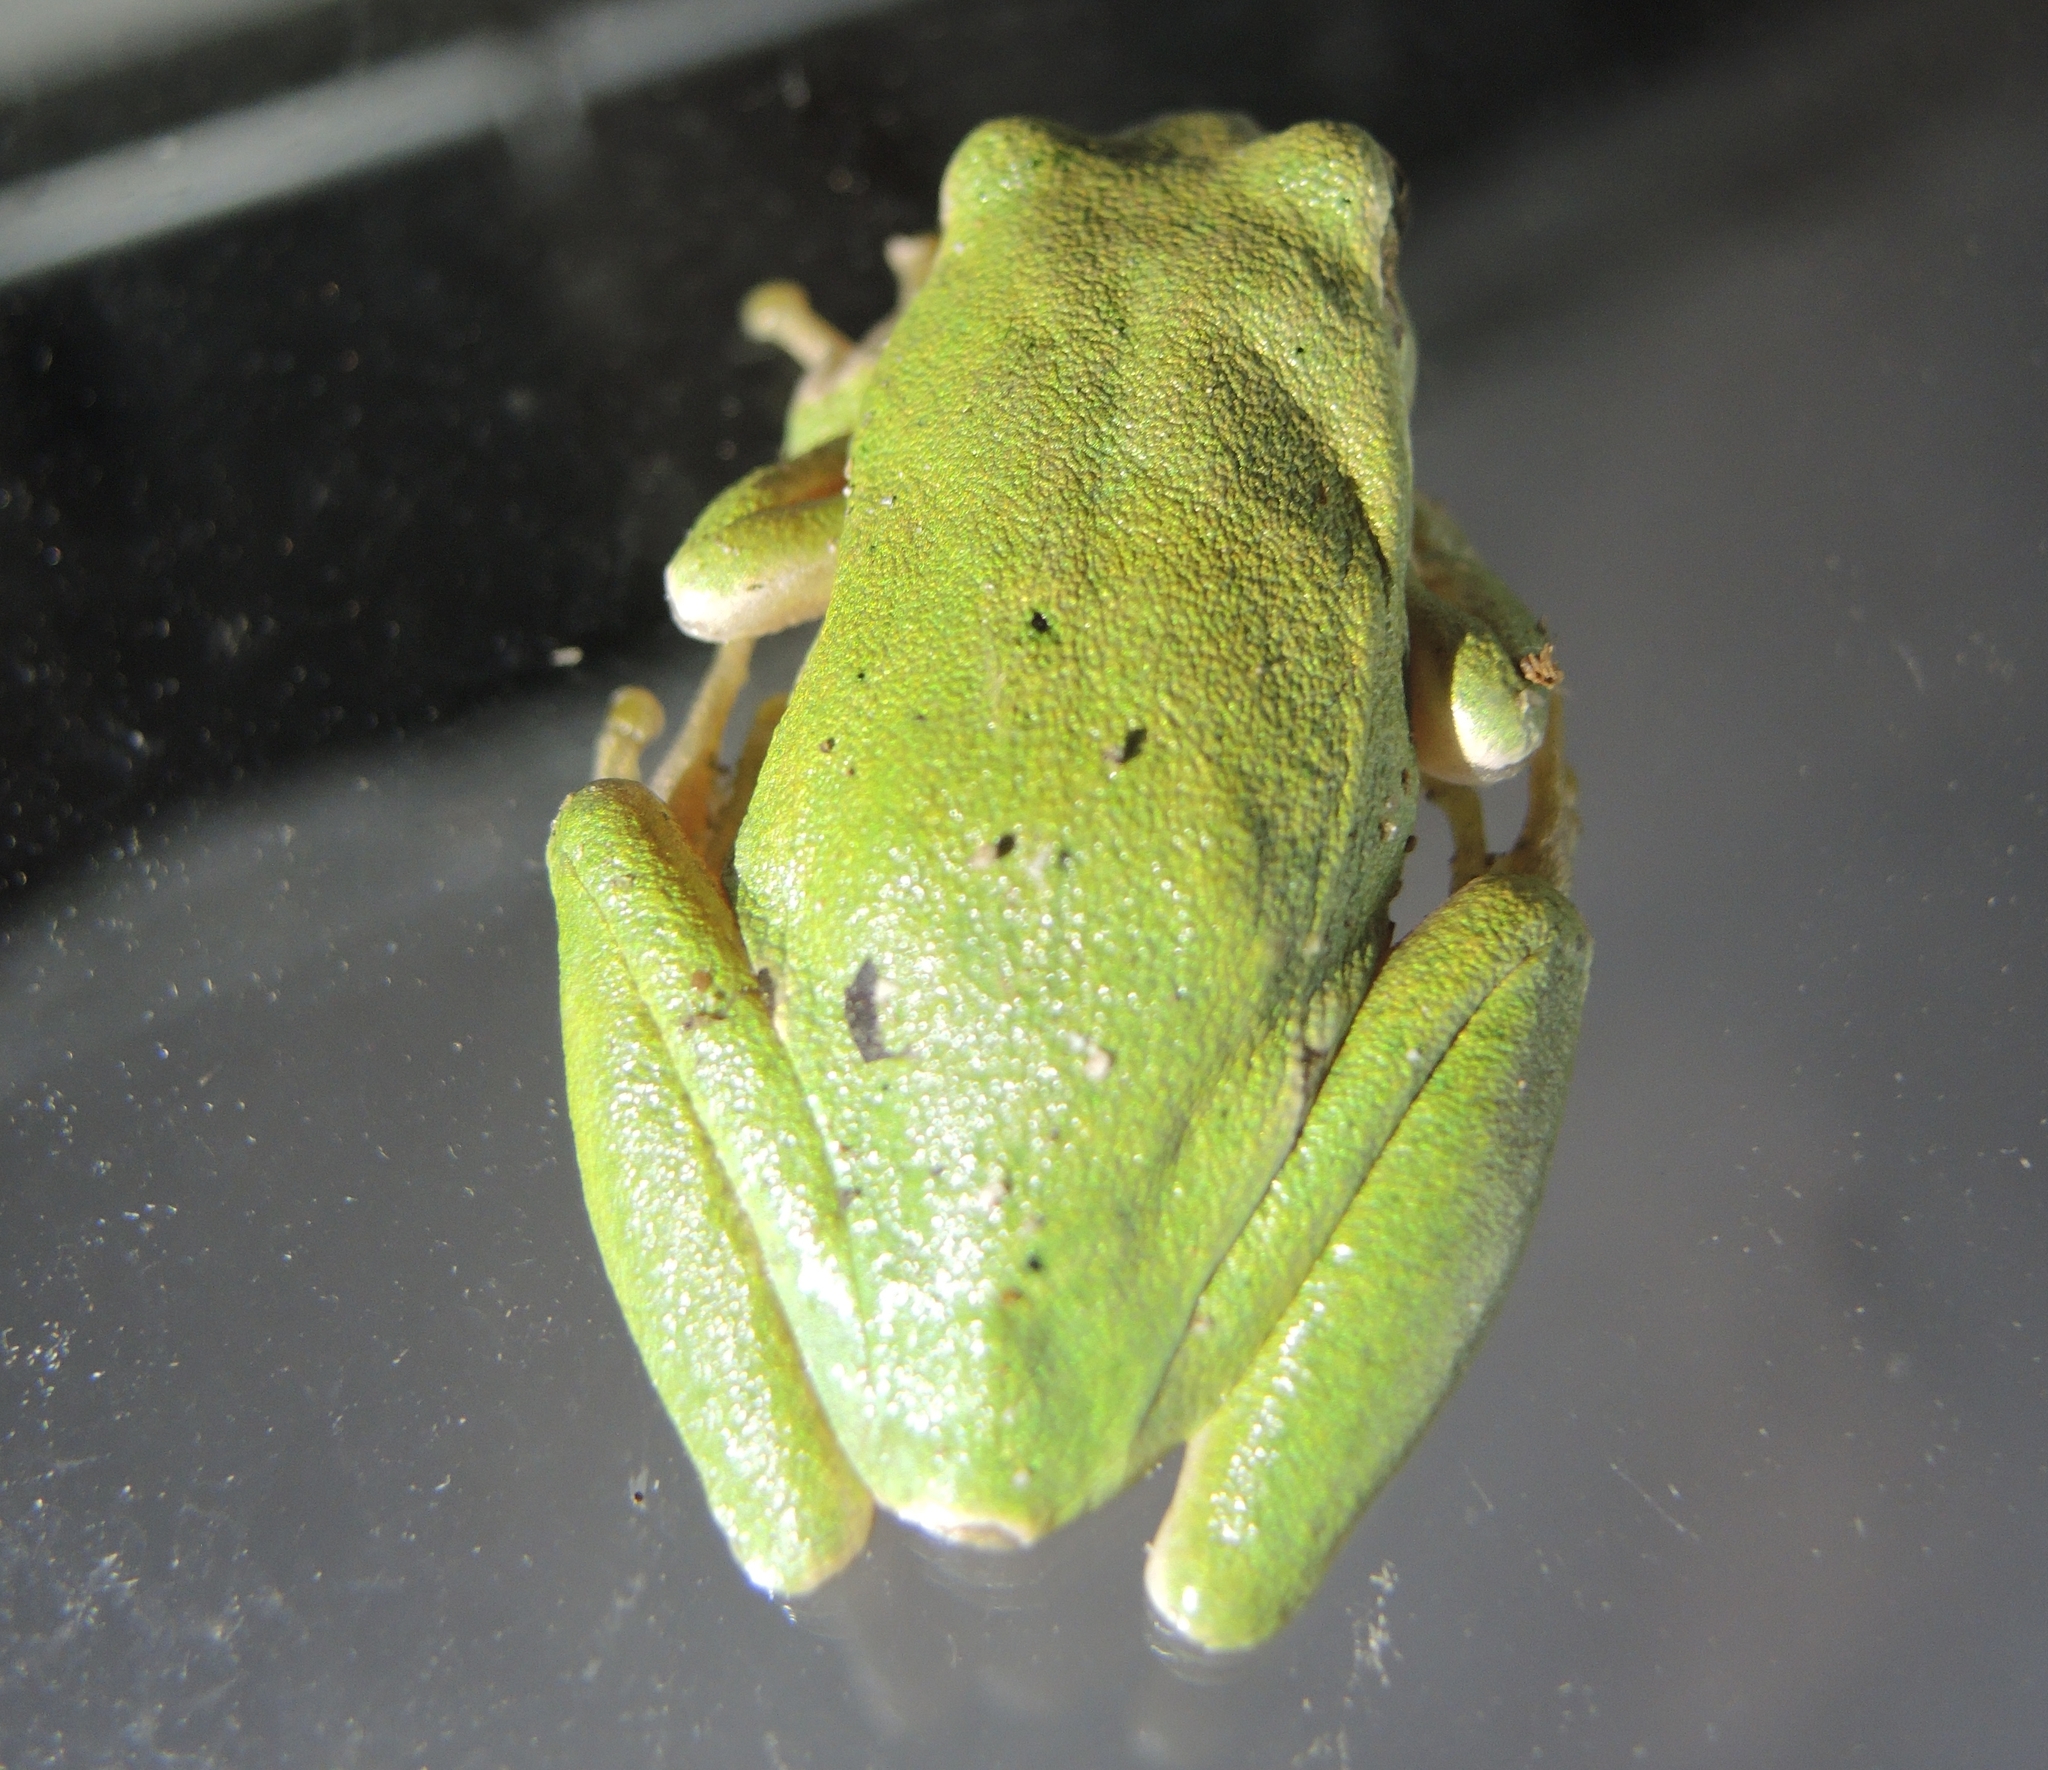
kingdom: Animalia
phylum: Chordata
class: Amphibia
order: Anura
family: Hylidae
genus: Hyla
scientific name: Hyla orientalis
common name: Caucasian treefrog
